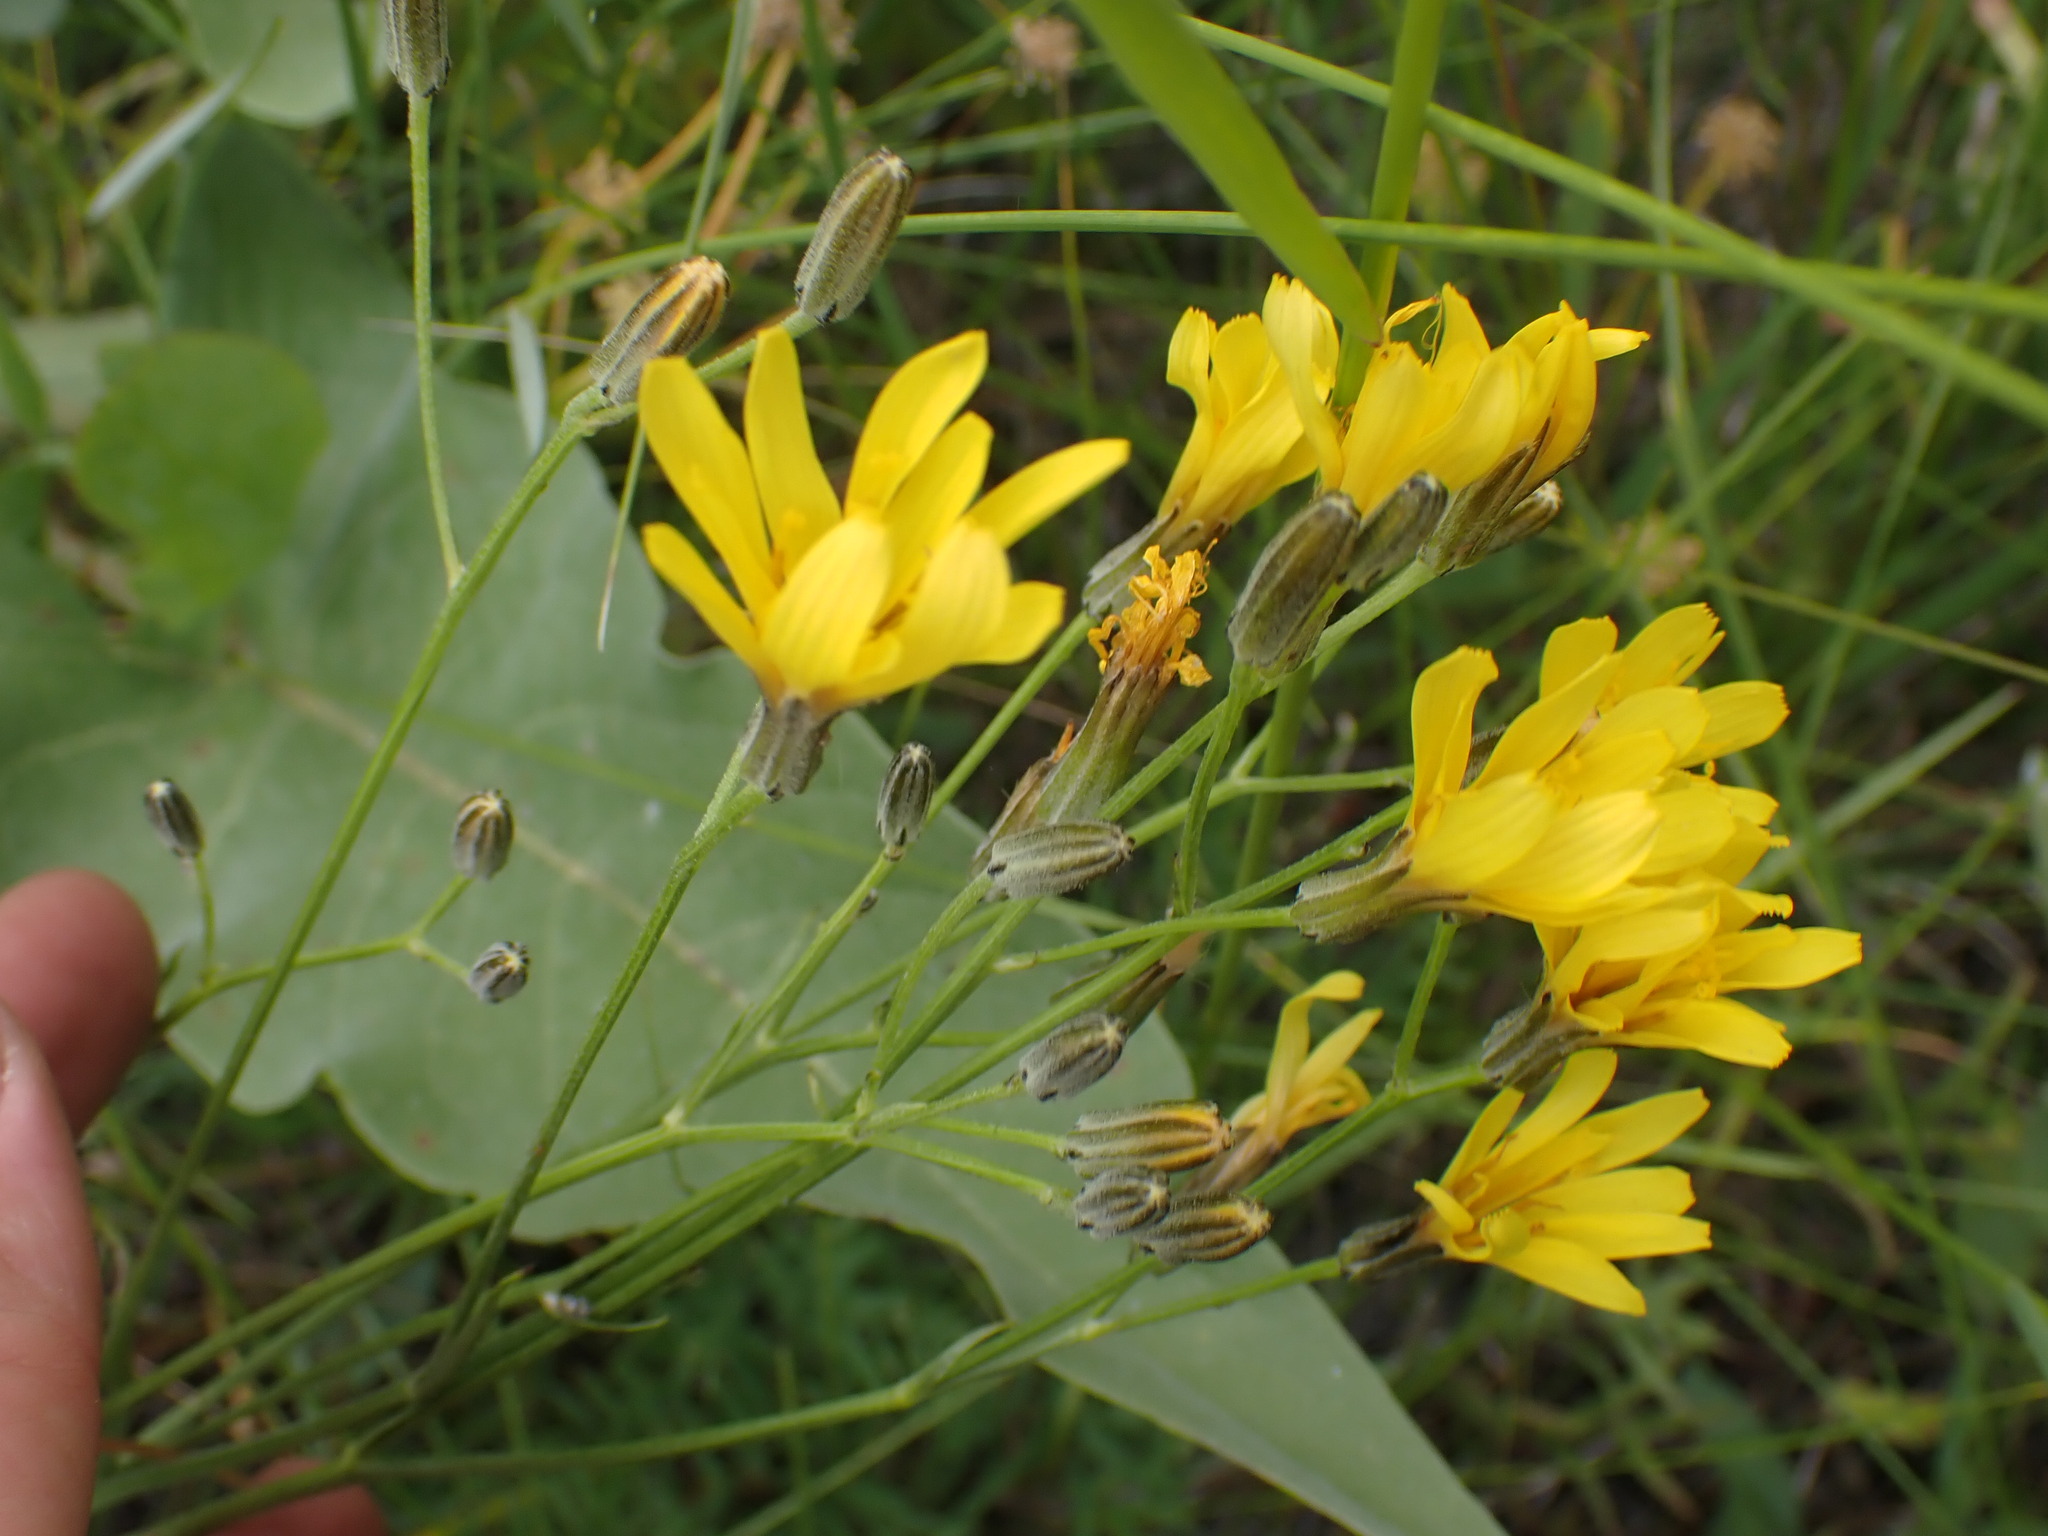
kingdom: Plantae
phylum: Tracheophyta
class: Magnoliopsida
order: Asterales
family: Asteraceae
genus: Crepis
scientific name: Crepis tectorum
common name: Narrow-leaved hawk's-beard
